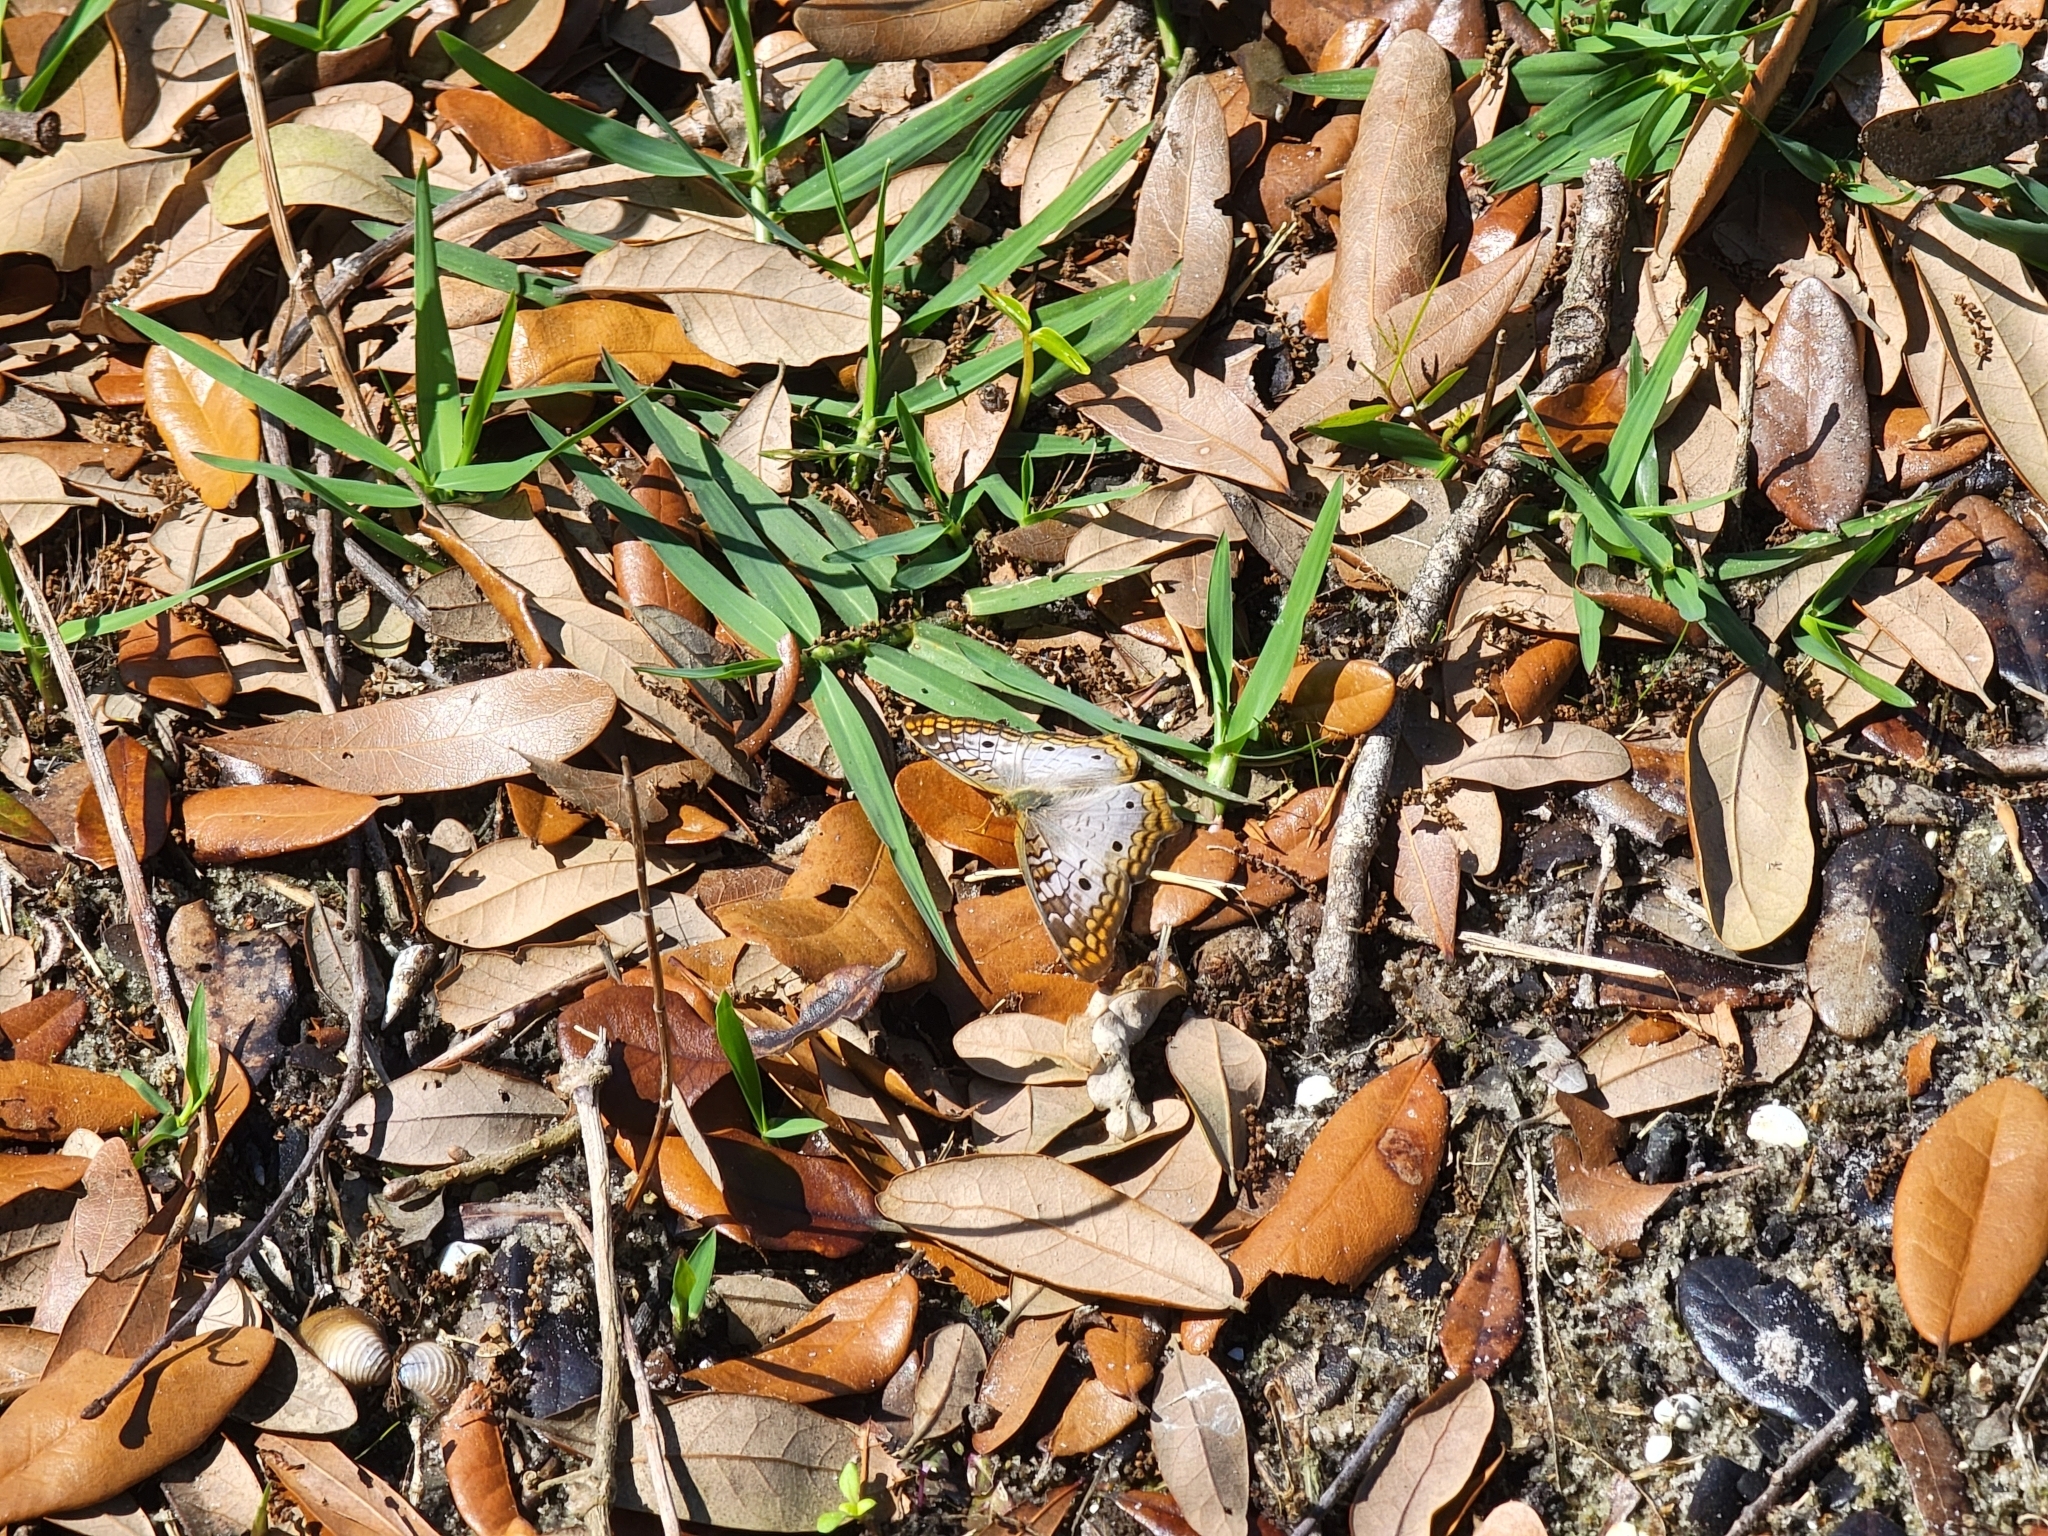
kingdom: Animalia
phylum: Arthropoda
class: Insecta
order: Lepidoptera
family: Nymphalidae
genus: Anartia
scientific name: Anartia jatrophae
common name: White peacock
